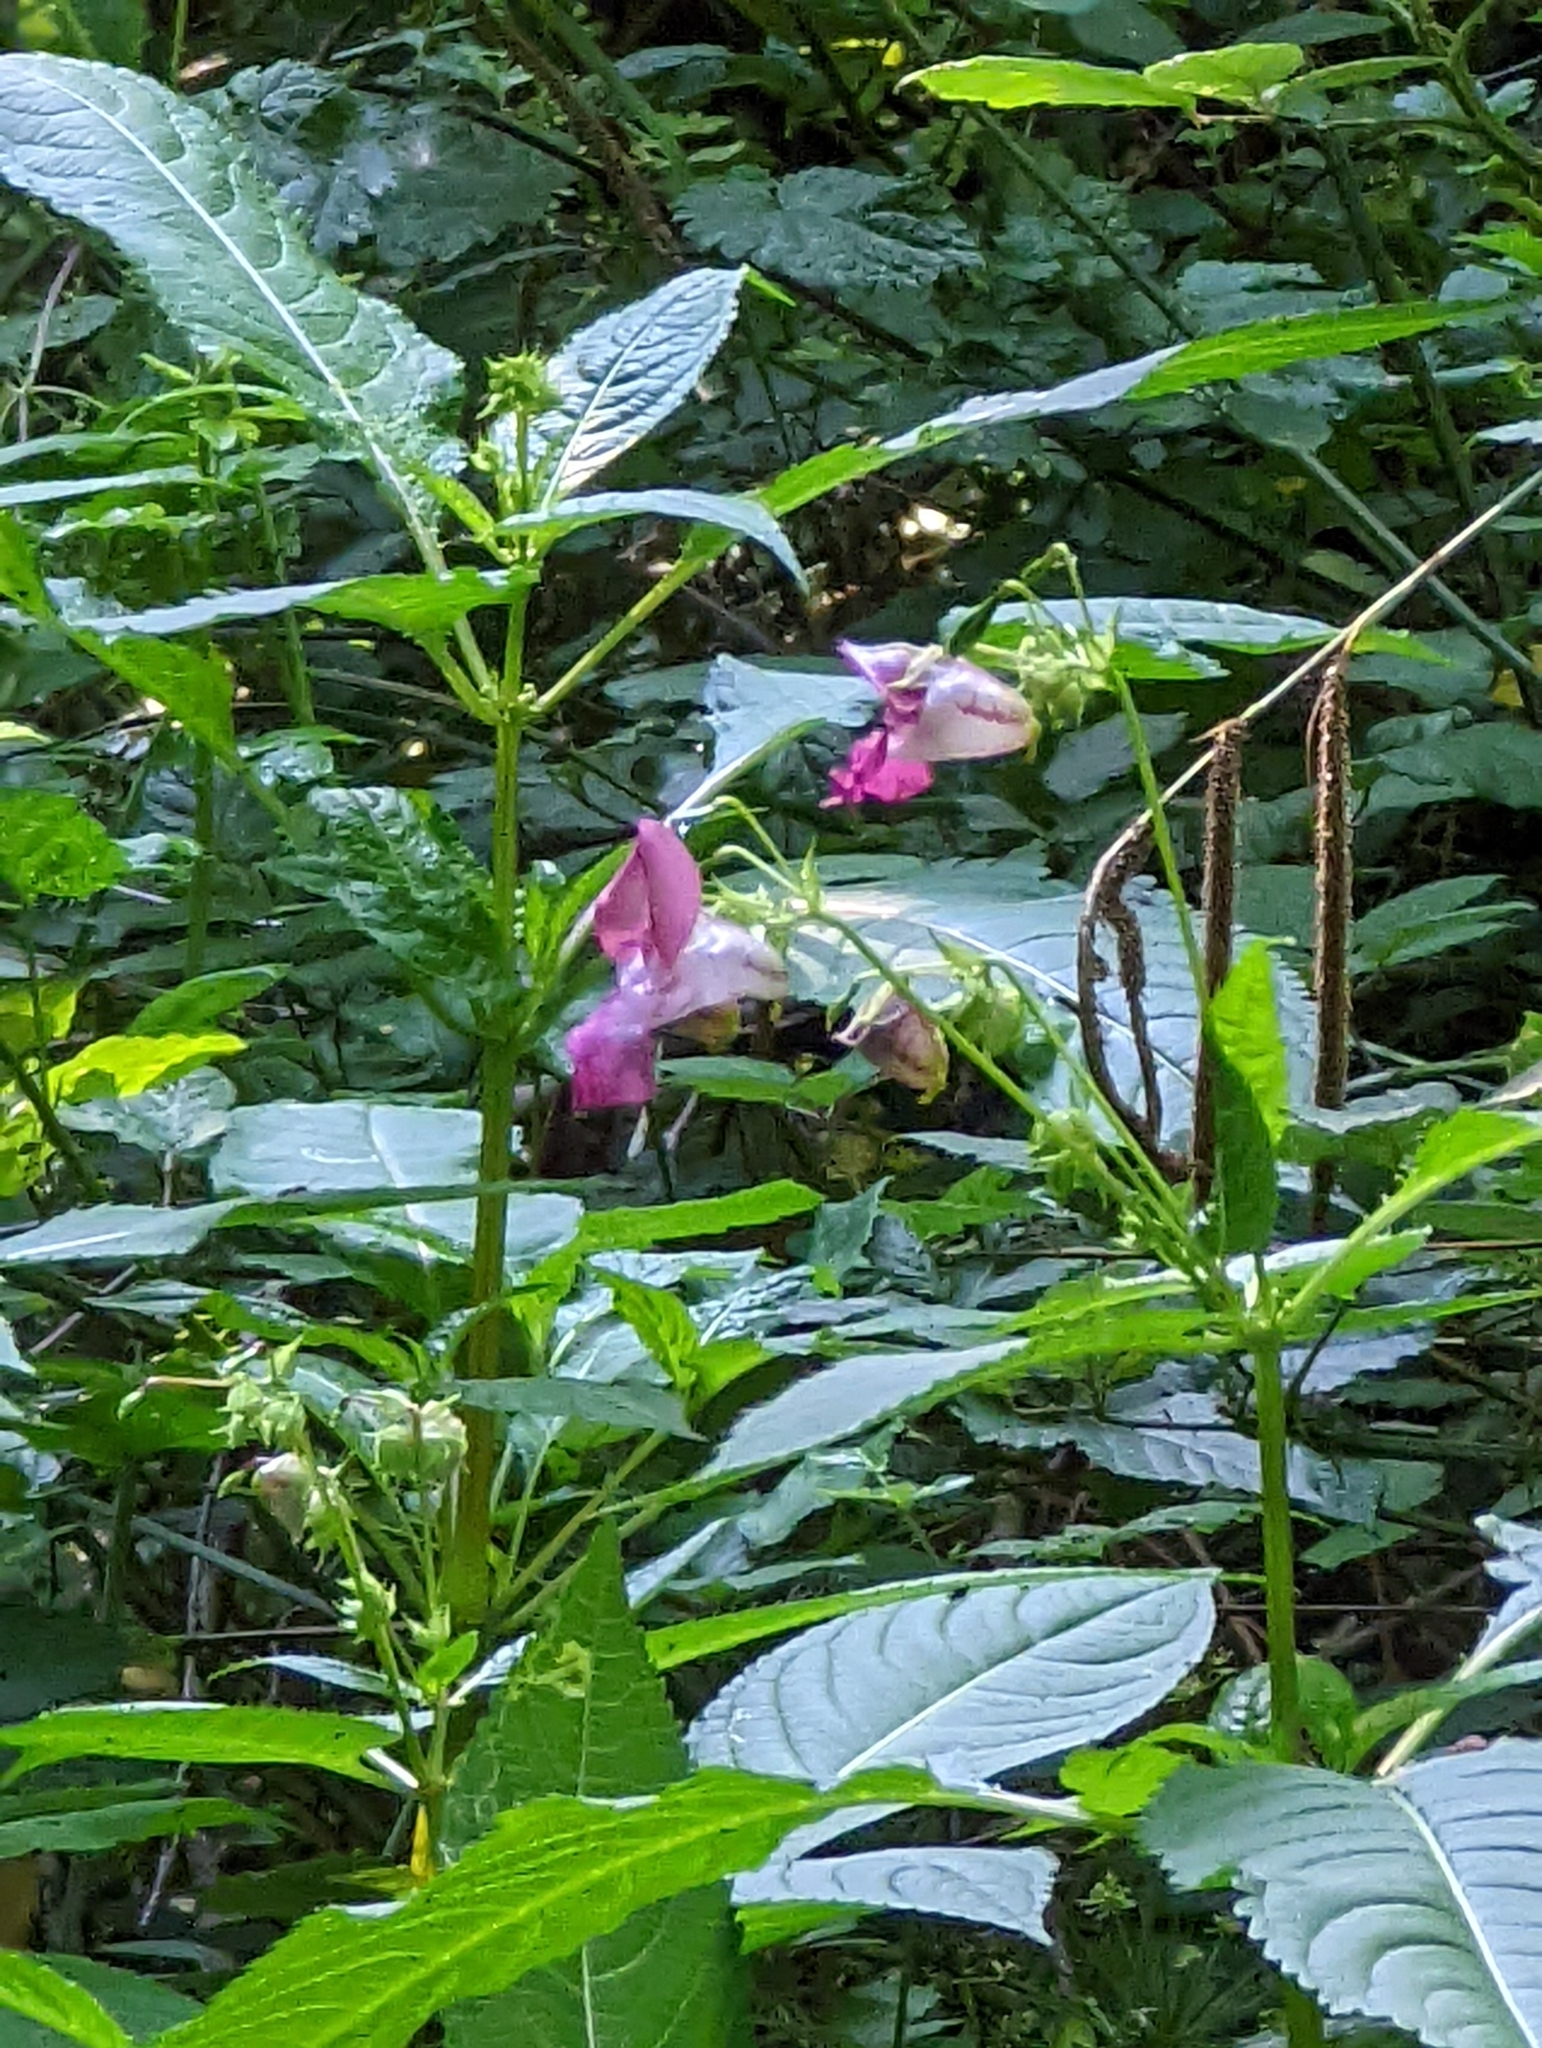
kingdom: Plantae
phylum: Tracheophyta
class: Magnoliopsida
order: Ericales
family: Balsaminaceae
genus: Impatiens
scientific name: Impatiens glandulifera
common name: Himalayan balsam
